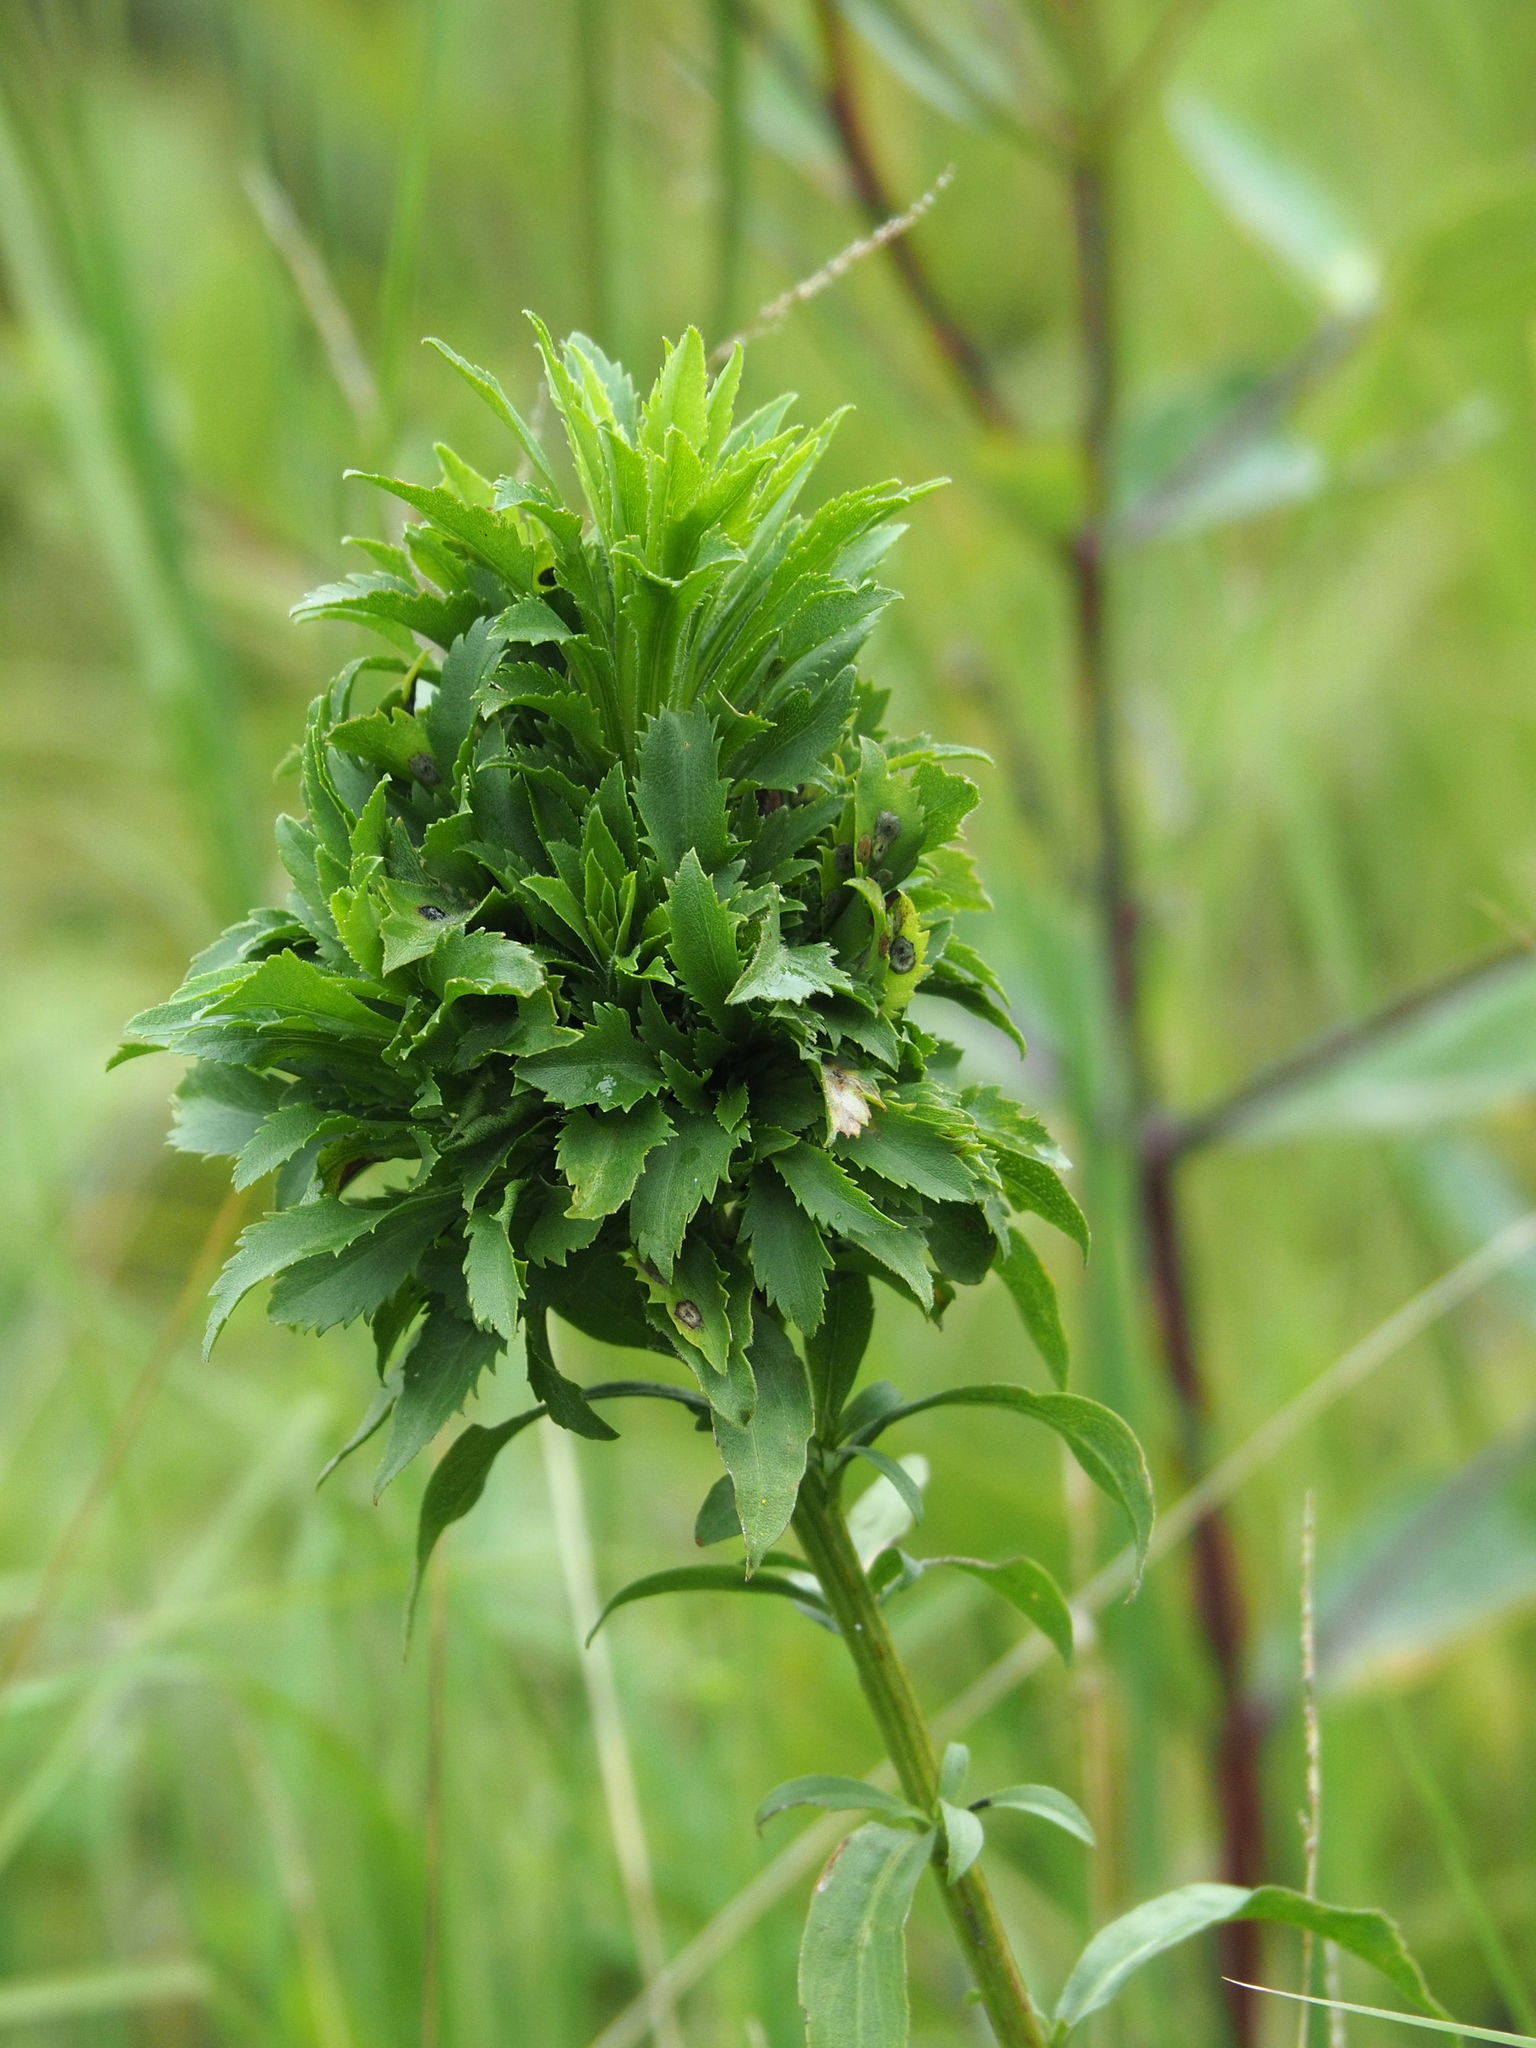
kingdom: Animalia
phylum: Arthropoda
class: Insecta
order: Diptera
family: Cecidomyiidae
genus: Asphondylia
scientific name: Asphondylia monacha
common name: Nun midge
